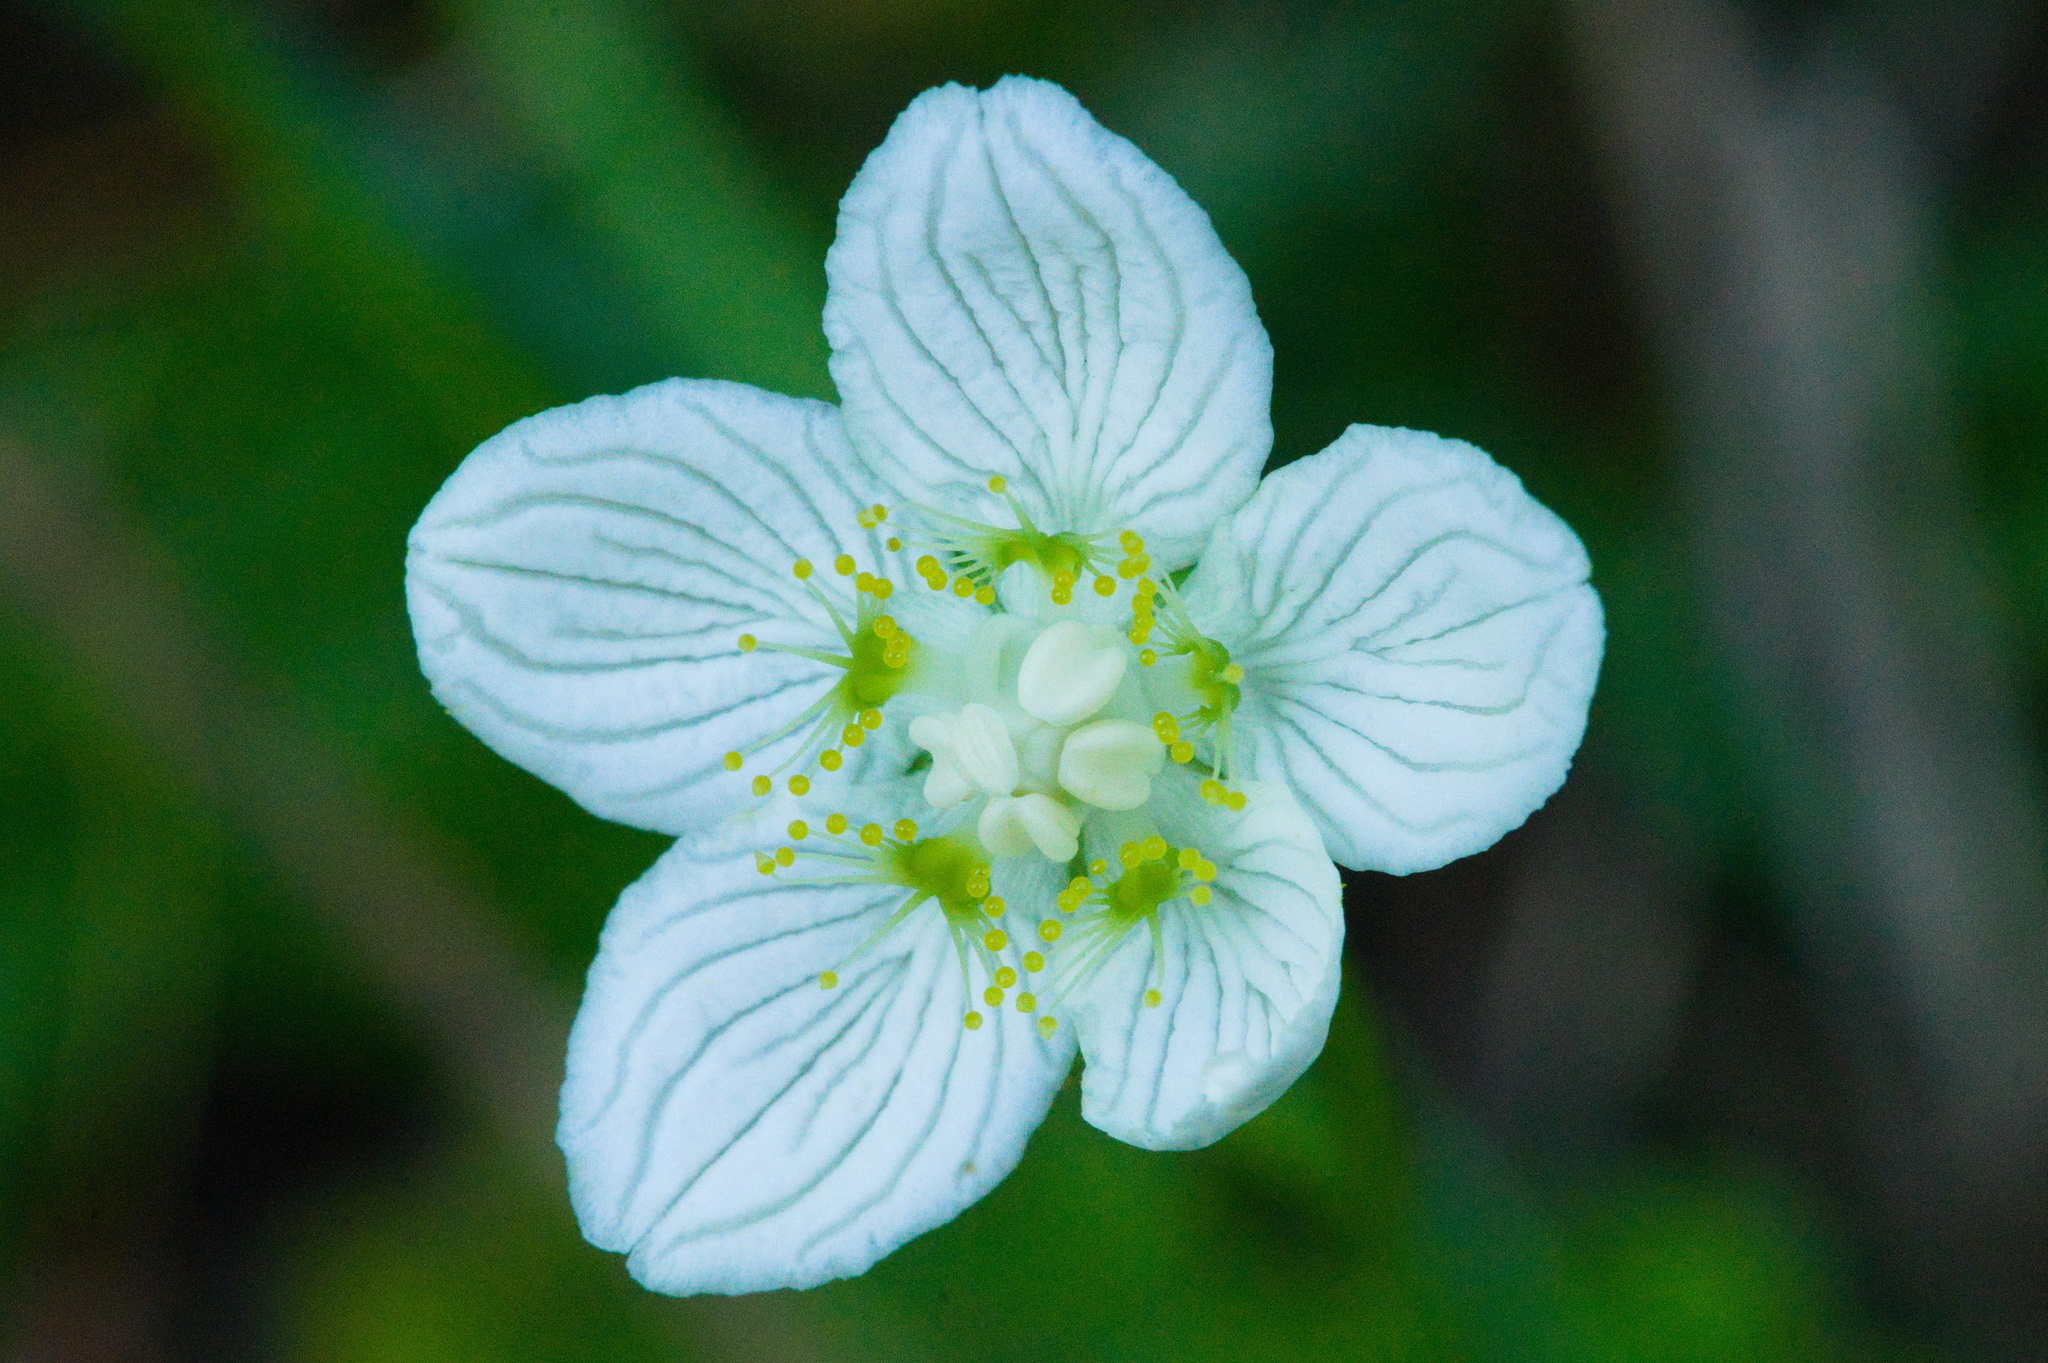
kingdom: Plantae
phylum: Tracheophyta
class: Magnoliopsida
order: Celastrales
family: Parnassiaceae
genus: Parnassia
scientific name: Parnassia palustris
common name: Grass-of-parnassus
